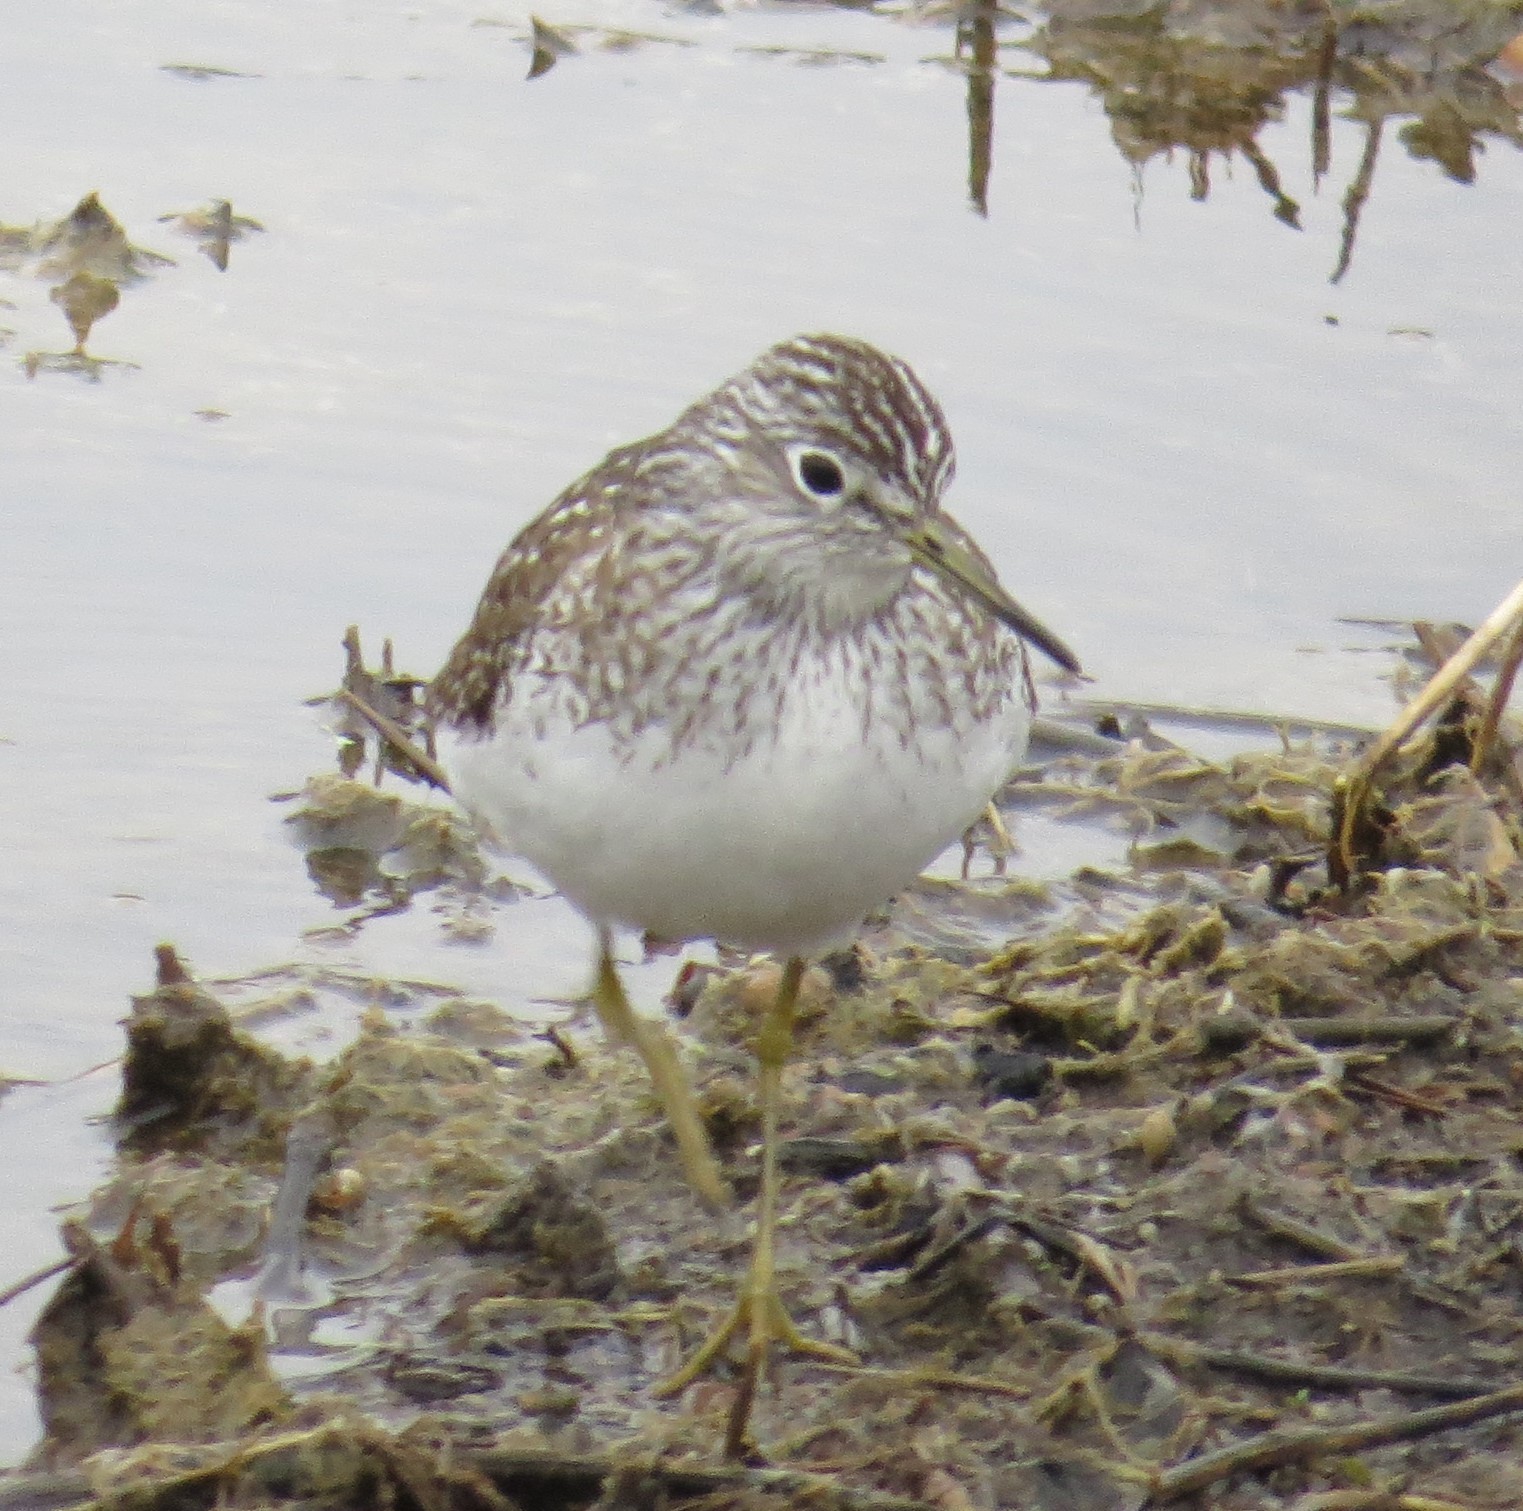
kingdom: Animalia
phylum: Chordata
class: Aves
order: Charadriiformes
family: Scolopacidae
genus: Tringa
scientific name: Tringa solitaria
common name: Solitary sandpiper
